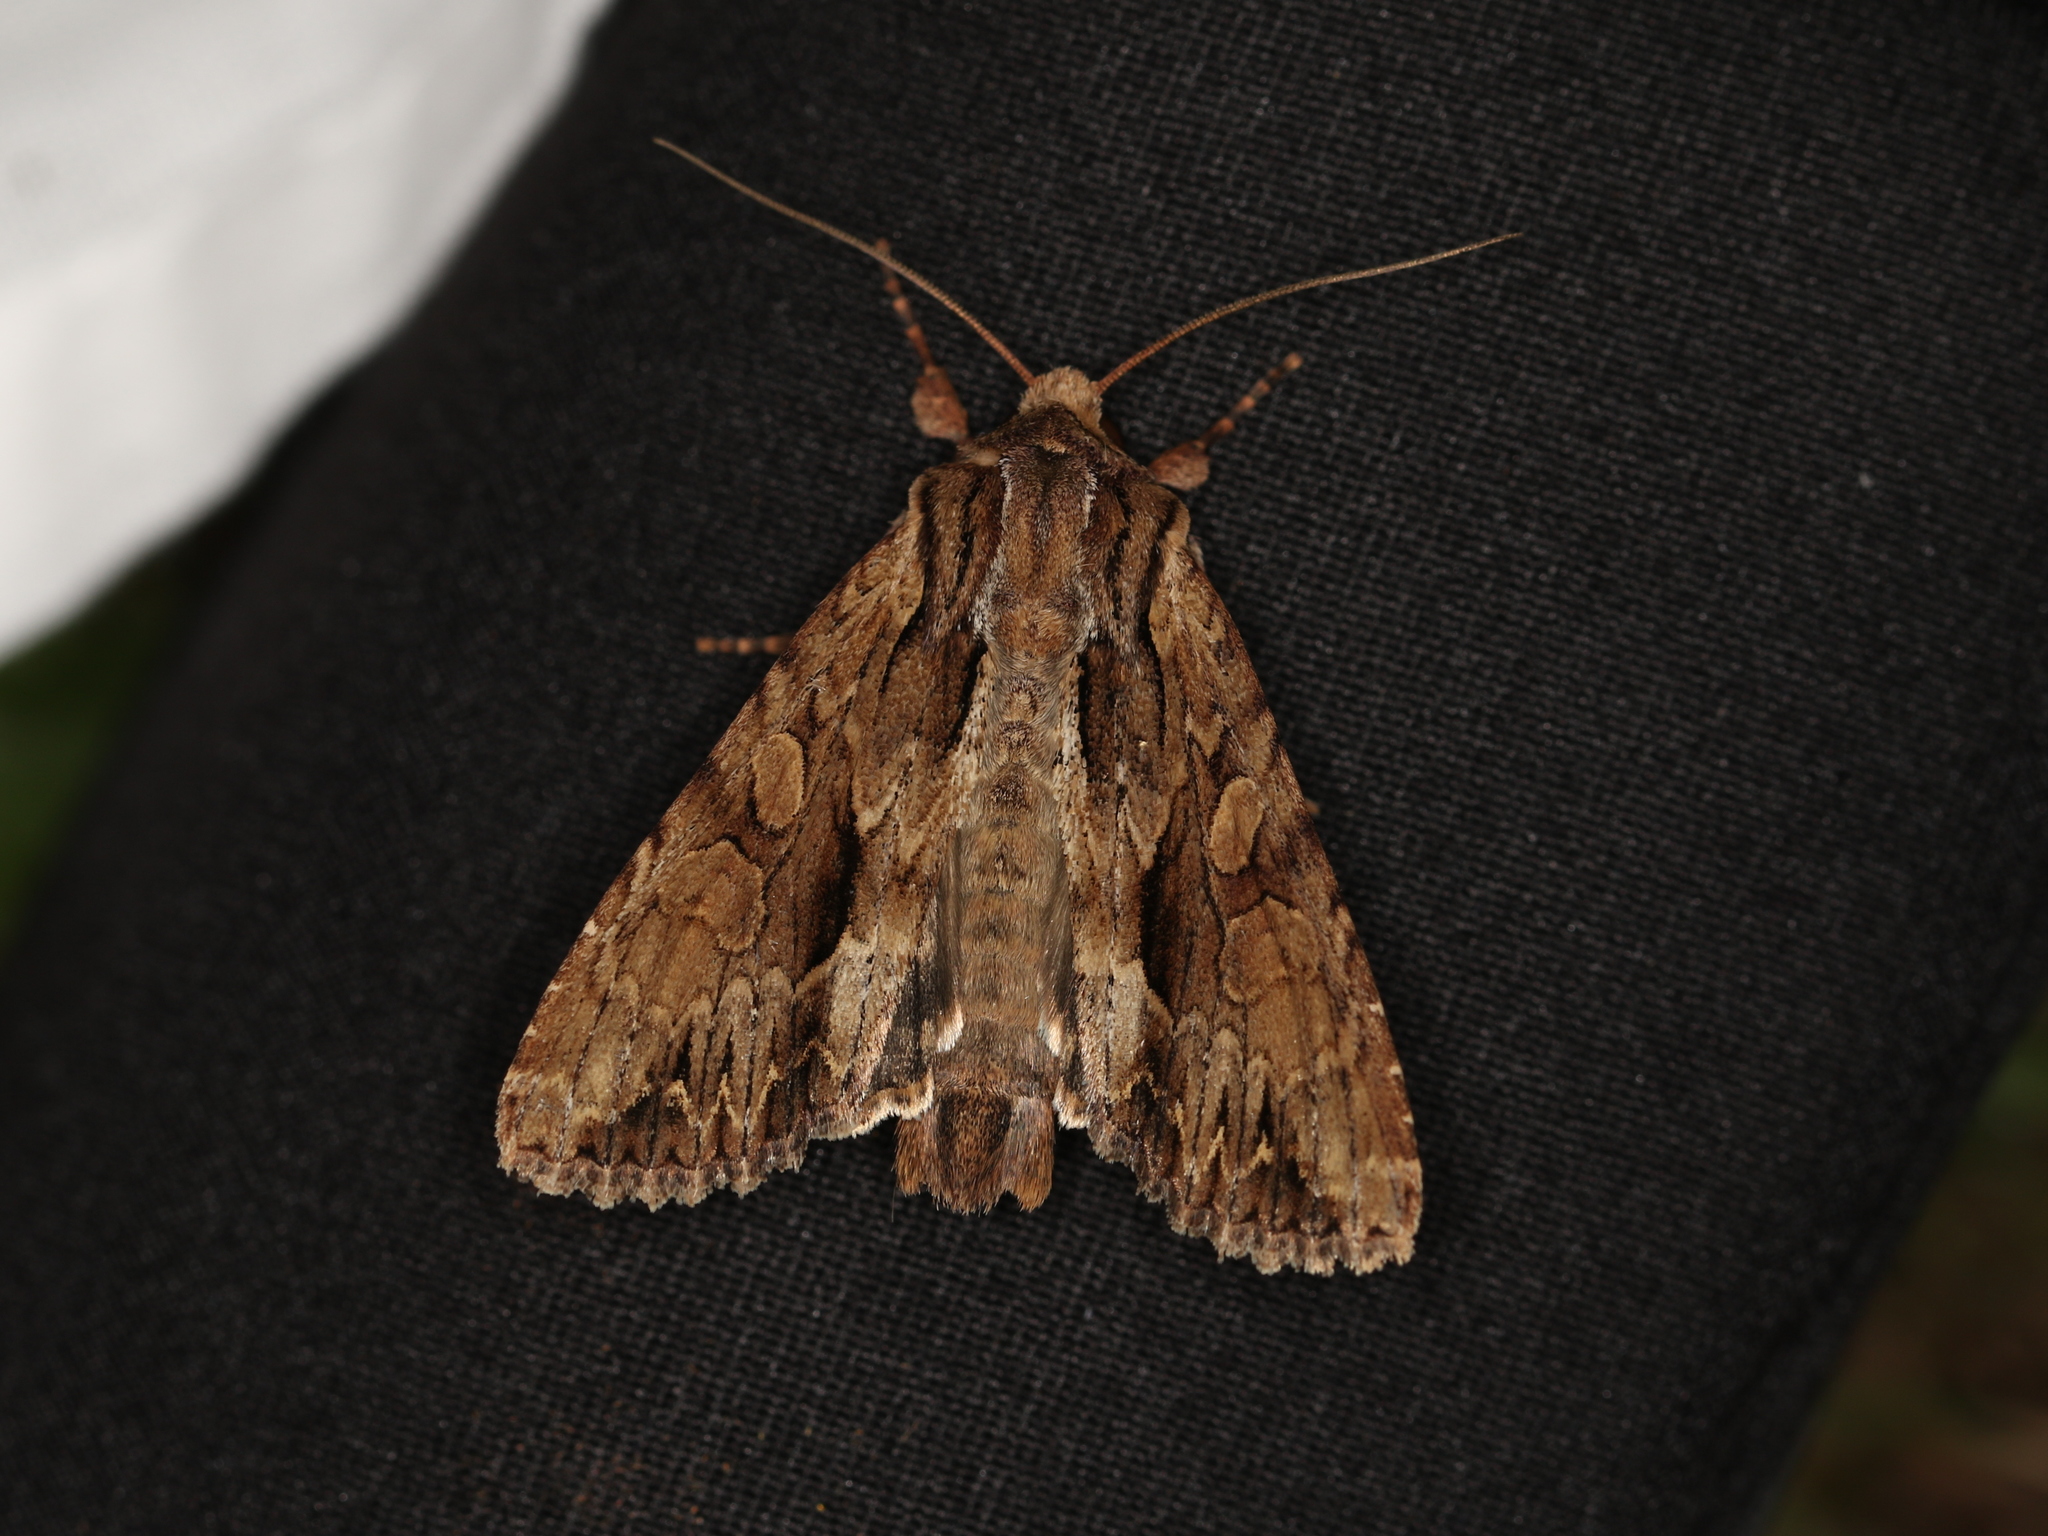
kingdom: Animalia
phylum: Arthropoda
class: Insecta
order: Lepidoptera
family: Noctuidae
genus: Apamea
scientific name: Apamea monoglypha
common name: Dark arches
